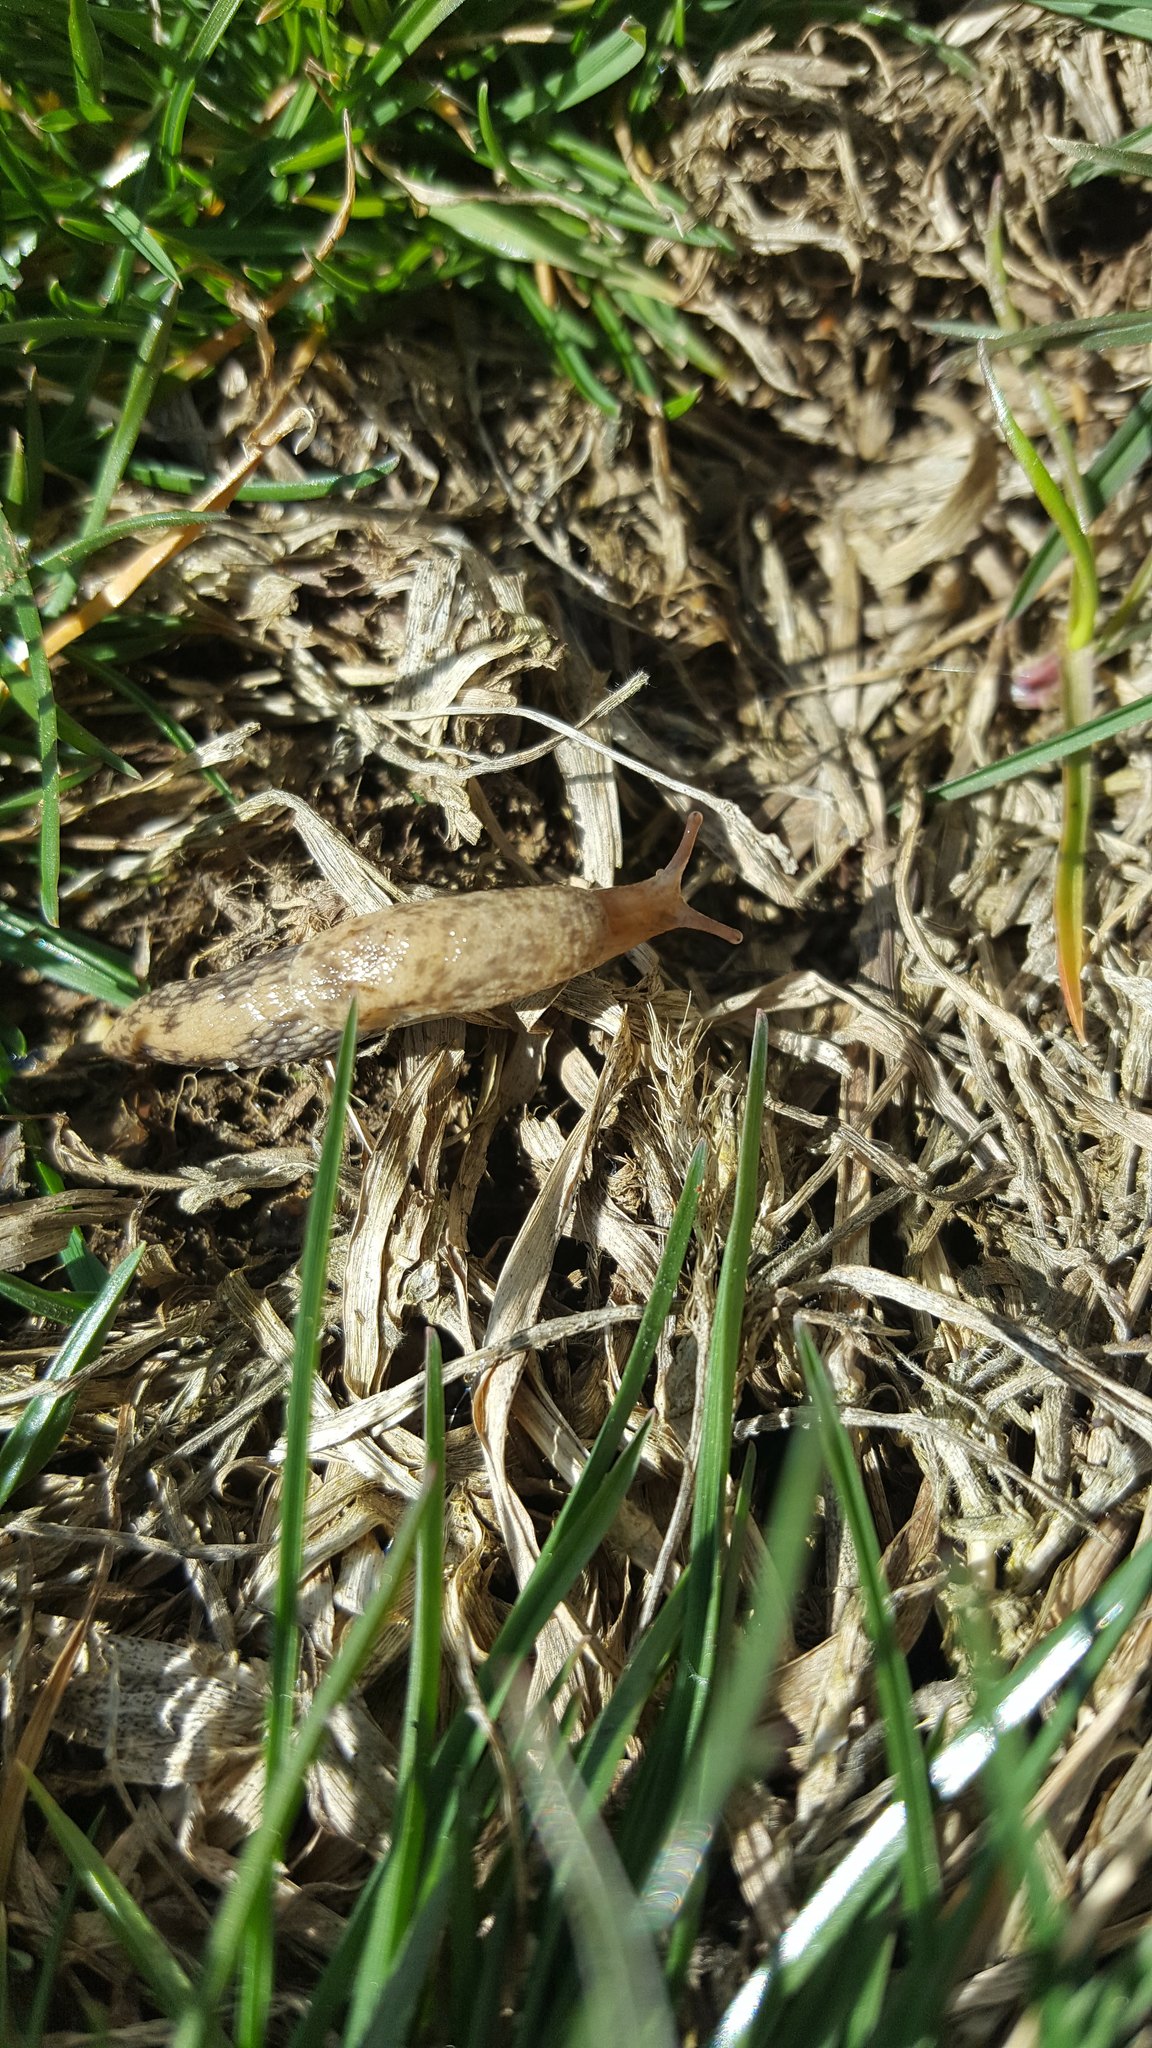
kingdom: Animalia
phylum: Mollusca
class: Gastropoda
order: Stylommatophora
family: Agriolimacidae
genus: Deroceras
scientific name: Deroceras reticulatum
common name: Gray field slug
